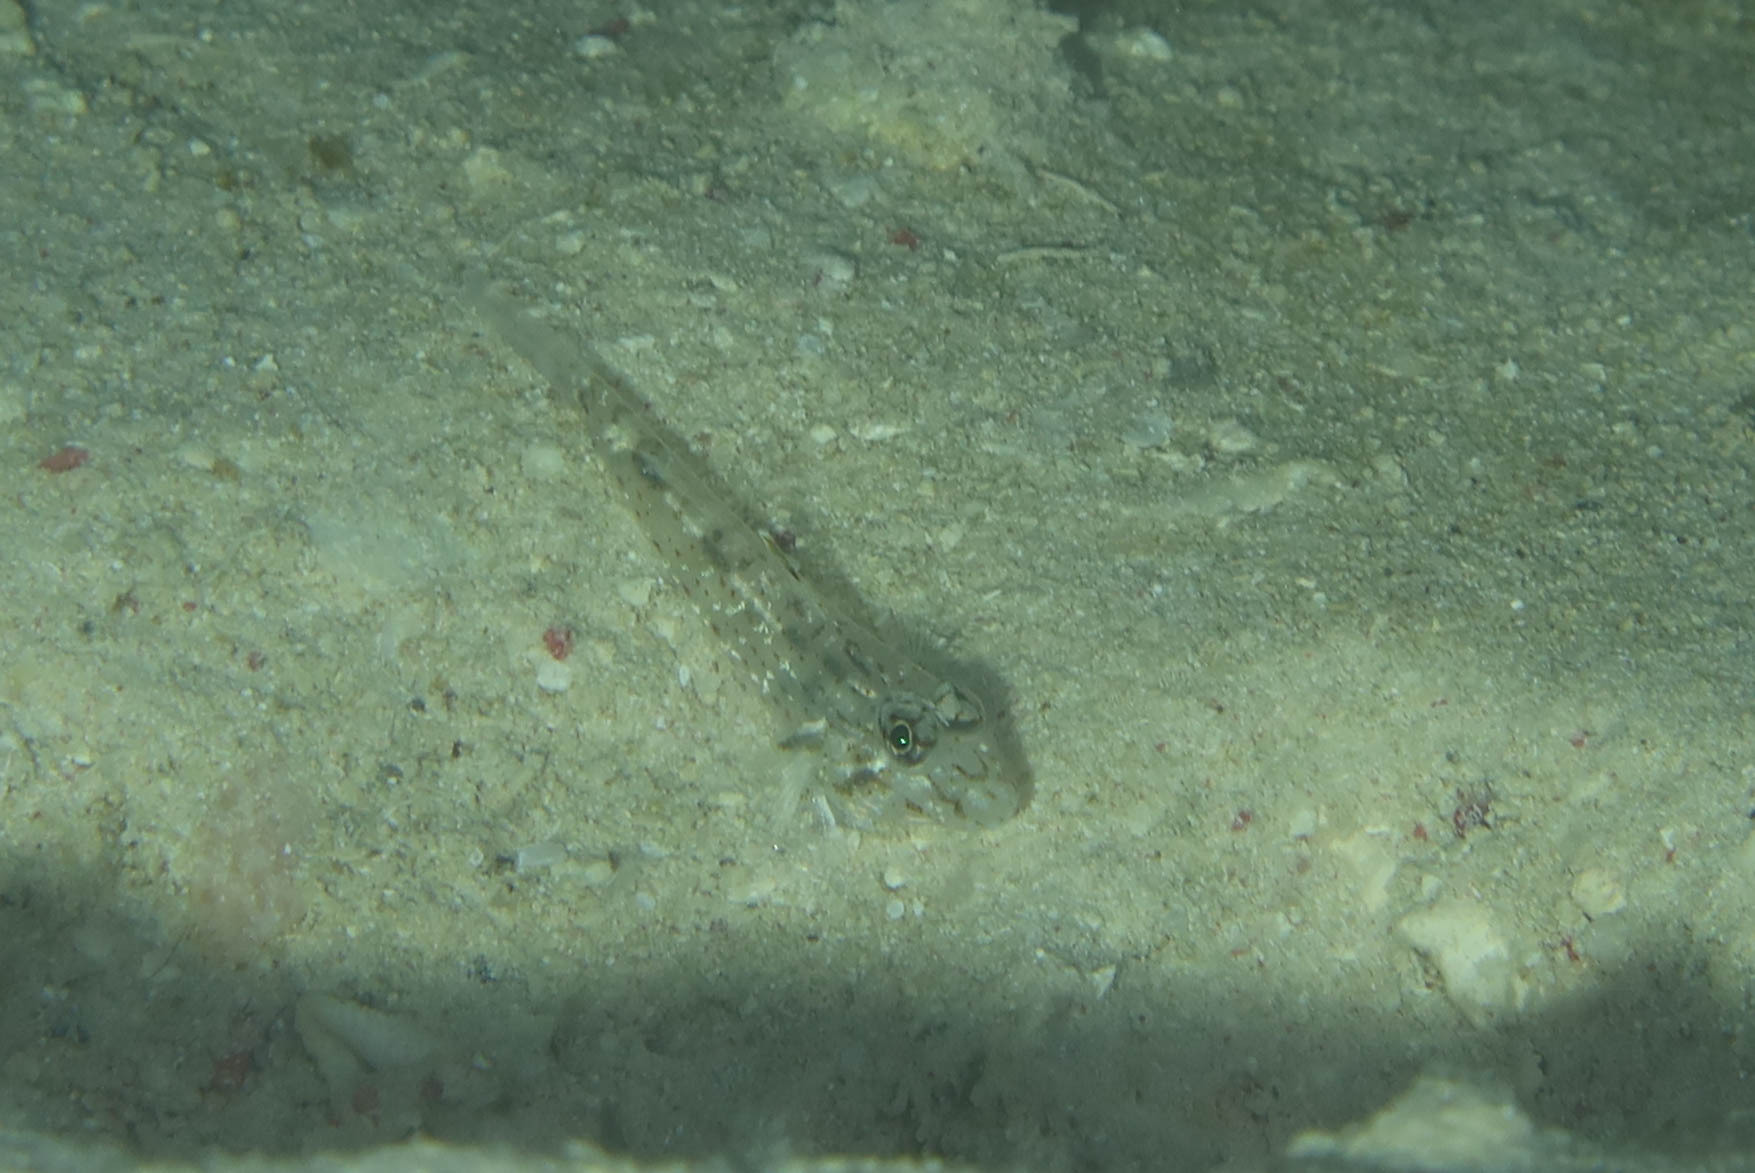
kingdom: Animalia
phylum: Chordata
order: Perciformes
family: Gobiidae
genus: Fusigobius
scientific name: Fusigobius neophytus
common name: Sand goby
